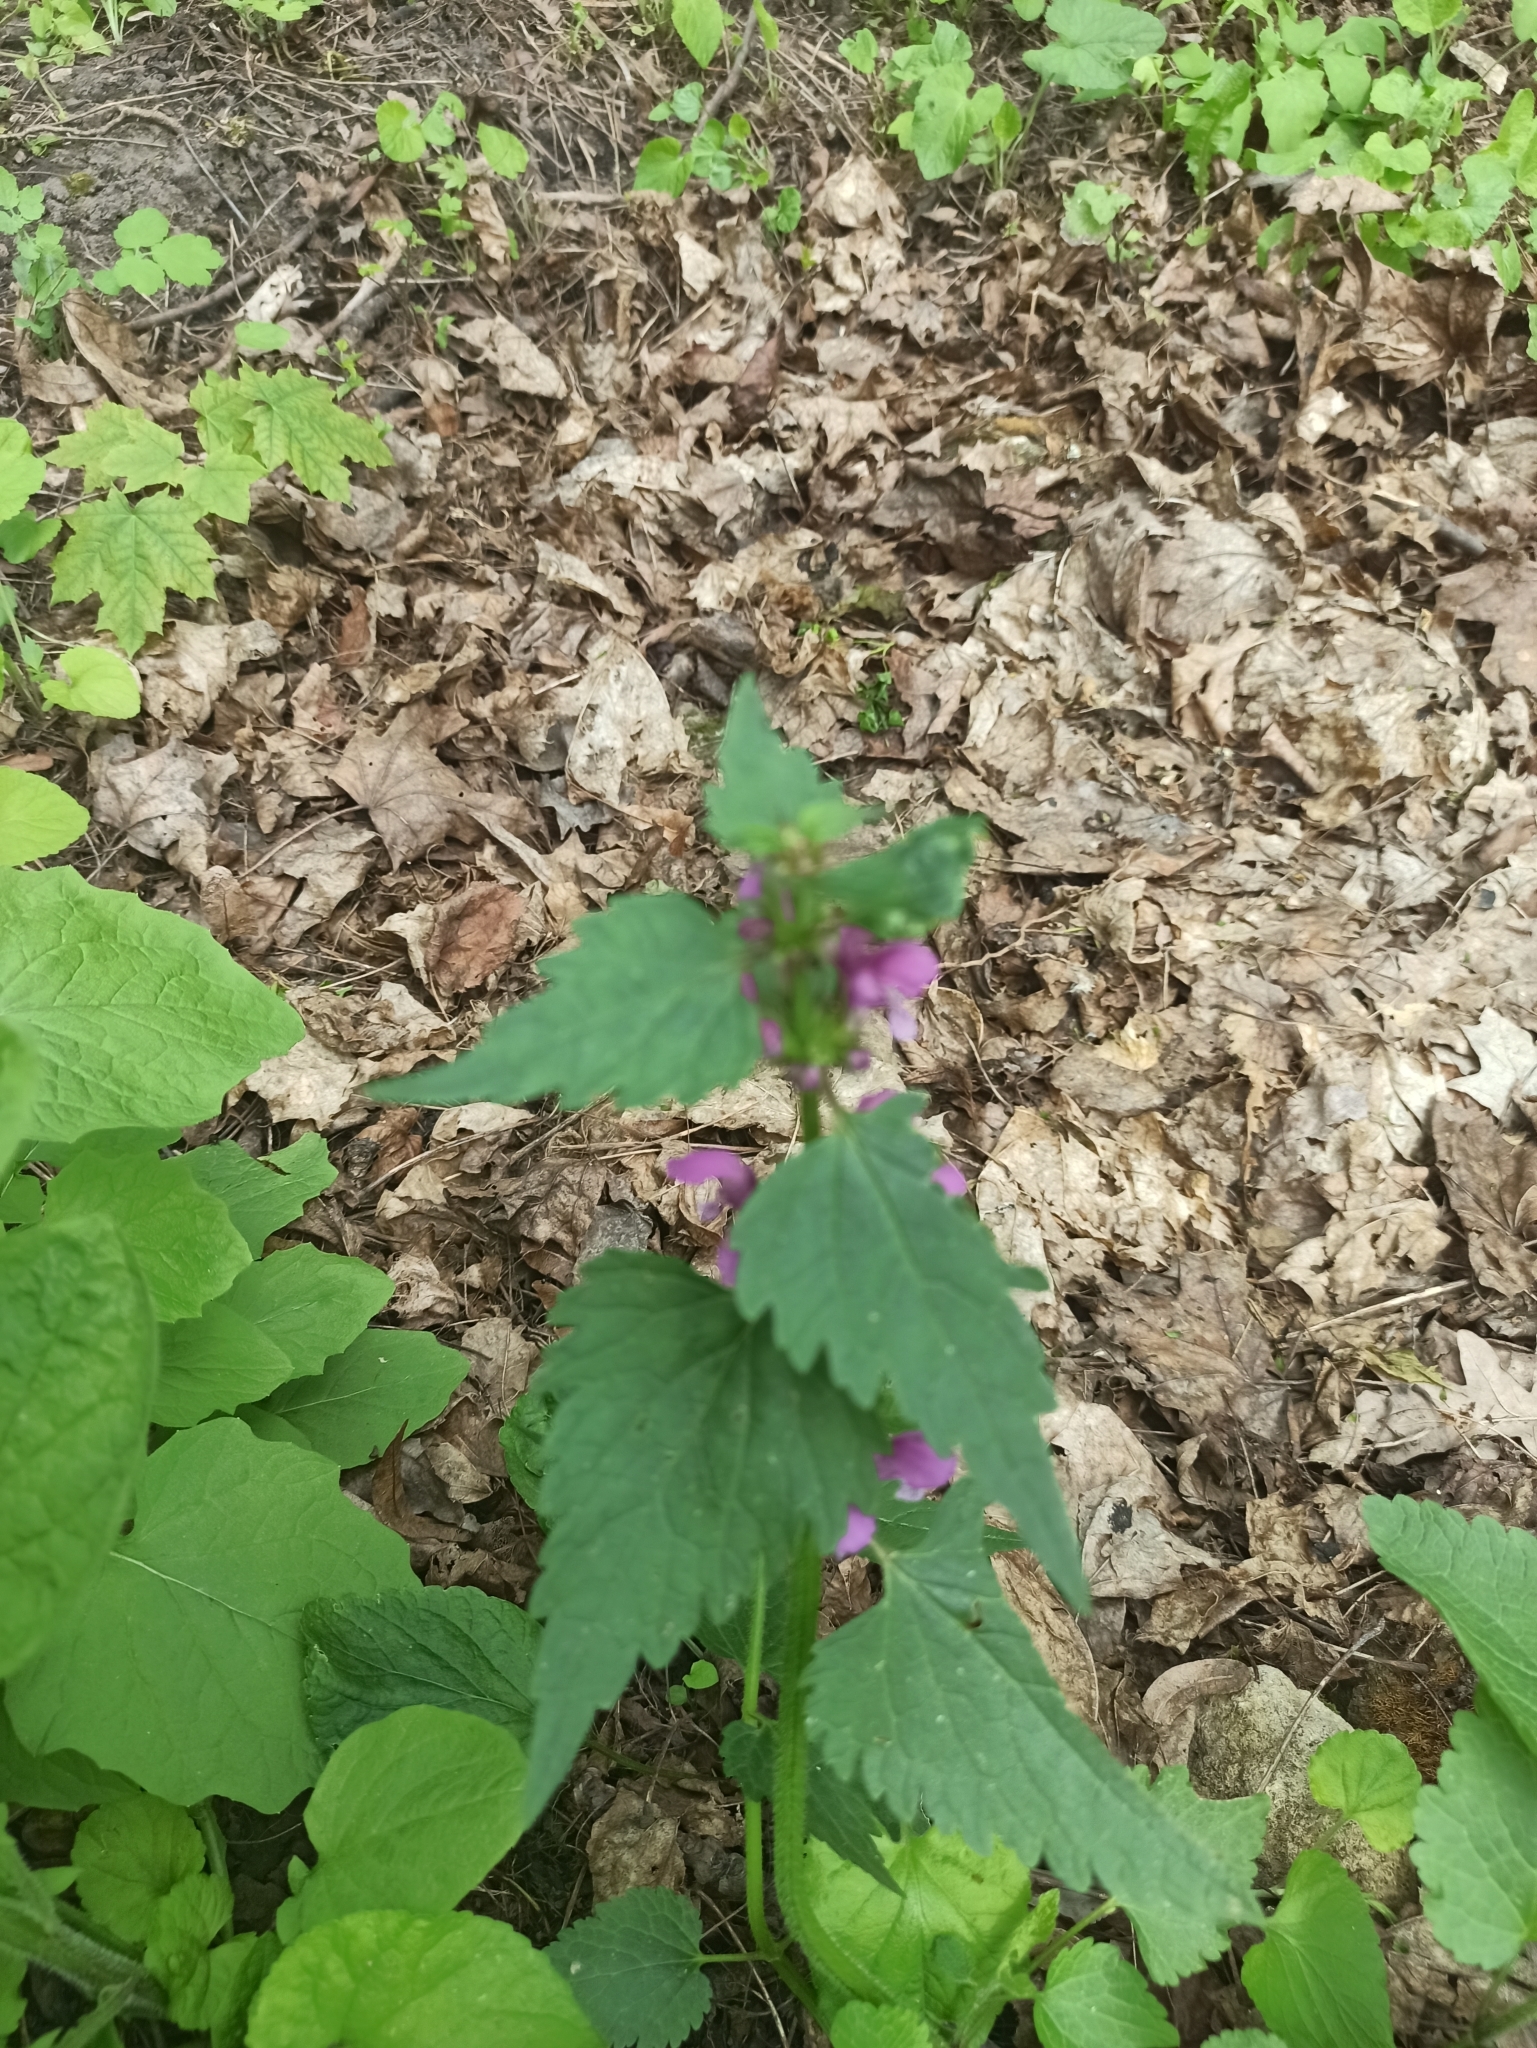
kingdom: Plantae
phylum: Tracheophyta
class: Magnoliopsida
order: Lamiales
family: Lamiaceae
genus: Lamium
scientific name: Lamium maculatum
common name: Spotted dead-nettle
